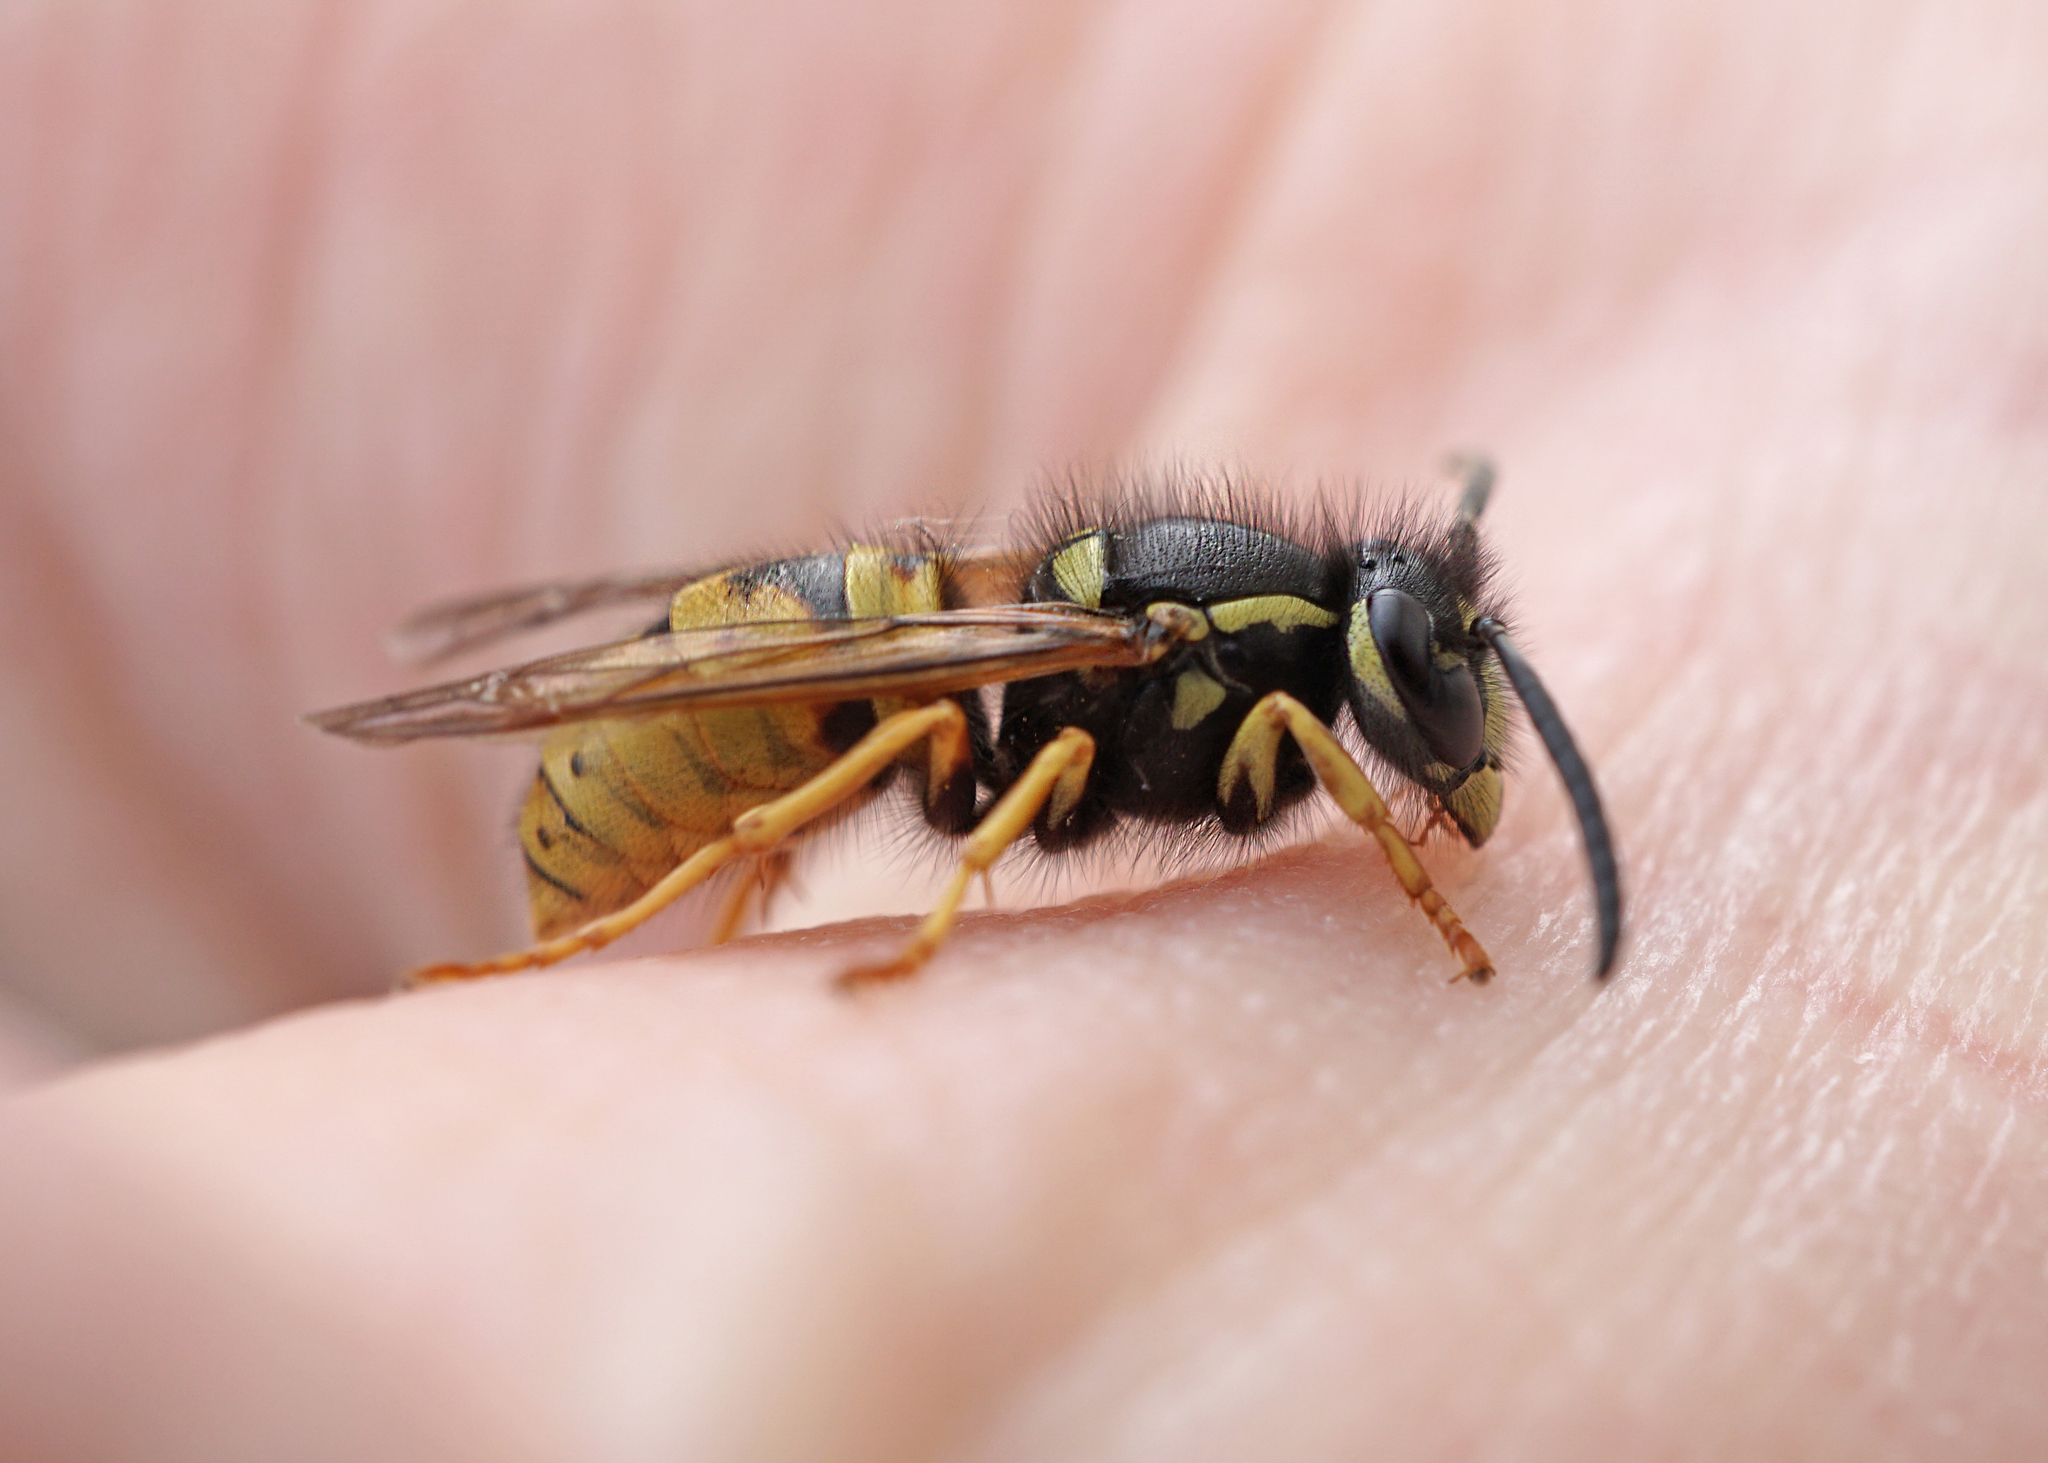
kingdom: Animalia
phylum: Arthropoda
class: Insecta
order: Hymenoptera
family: Vespidae
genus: Vespula
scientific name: Vespula rufa
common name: Red wasp
